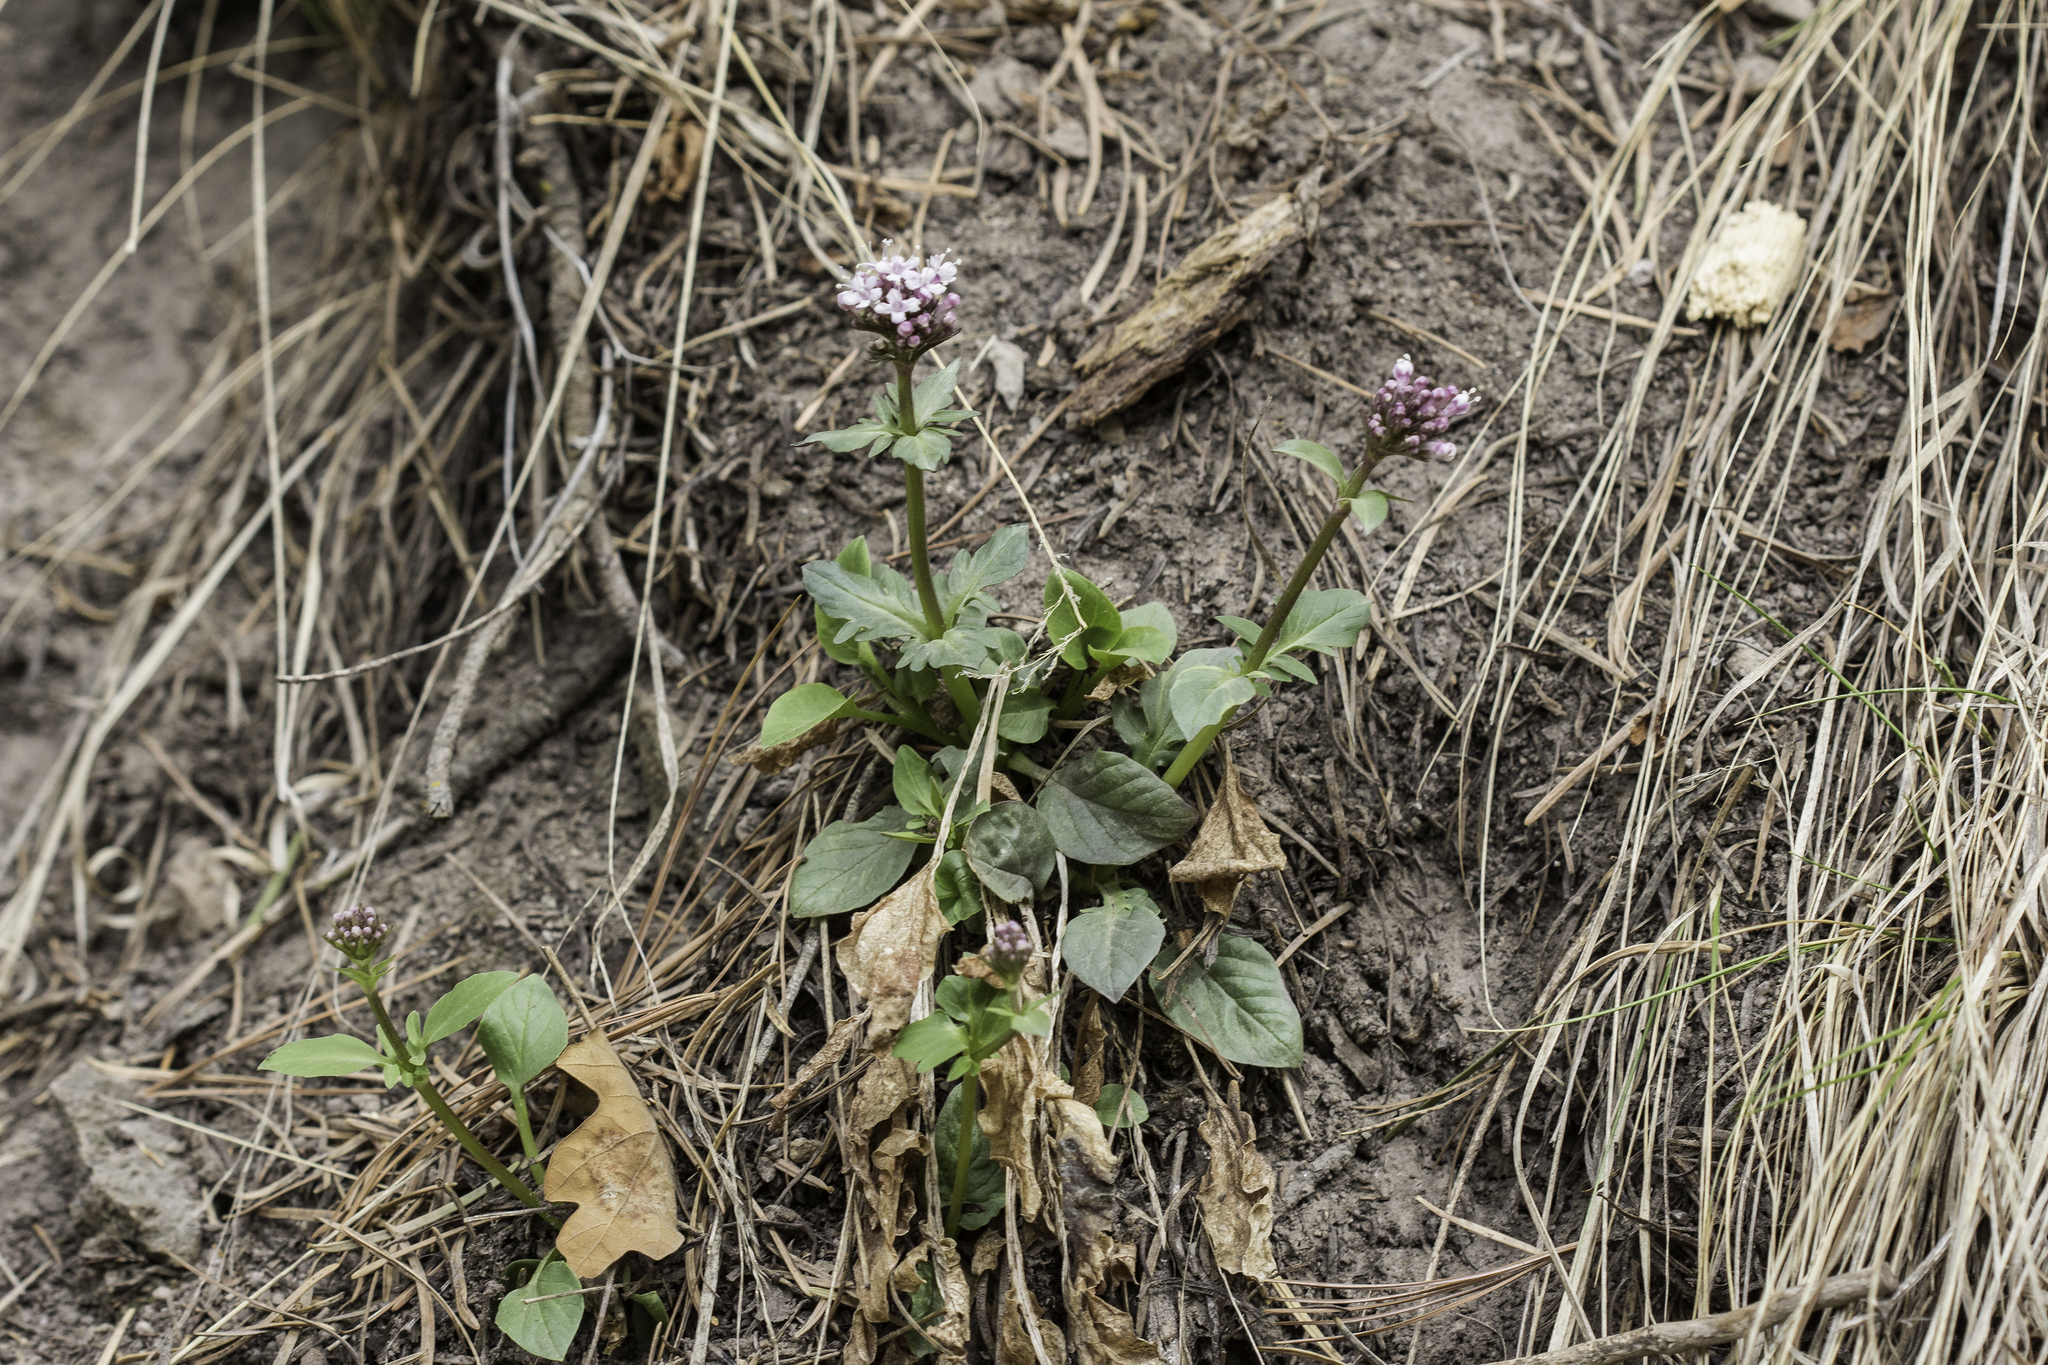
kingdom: Plantae
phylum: Tracheophyta
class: Magnoliopsida
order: Dipsacales
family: Caprifoliaceae
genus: Valeriana
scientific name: Valeriana arizonica
